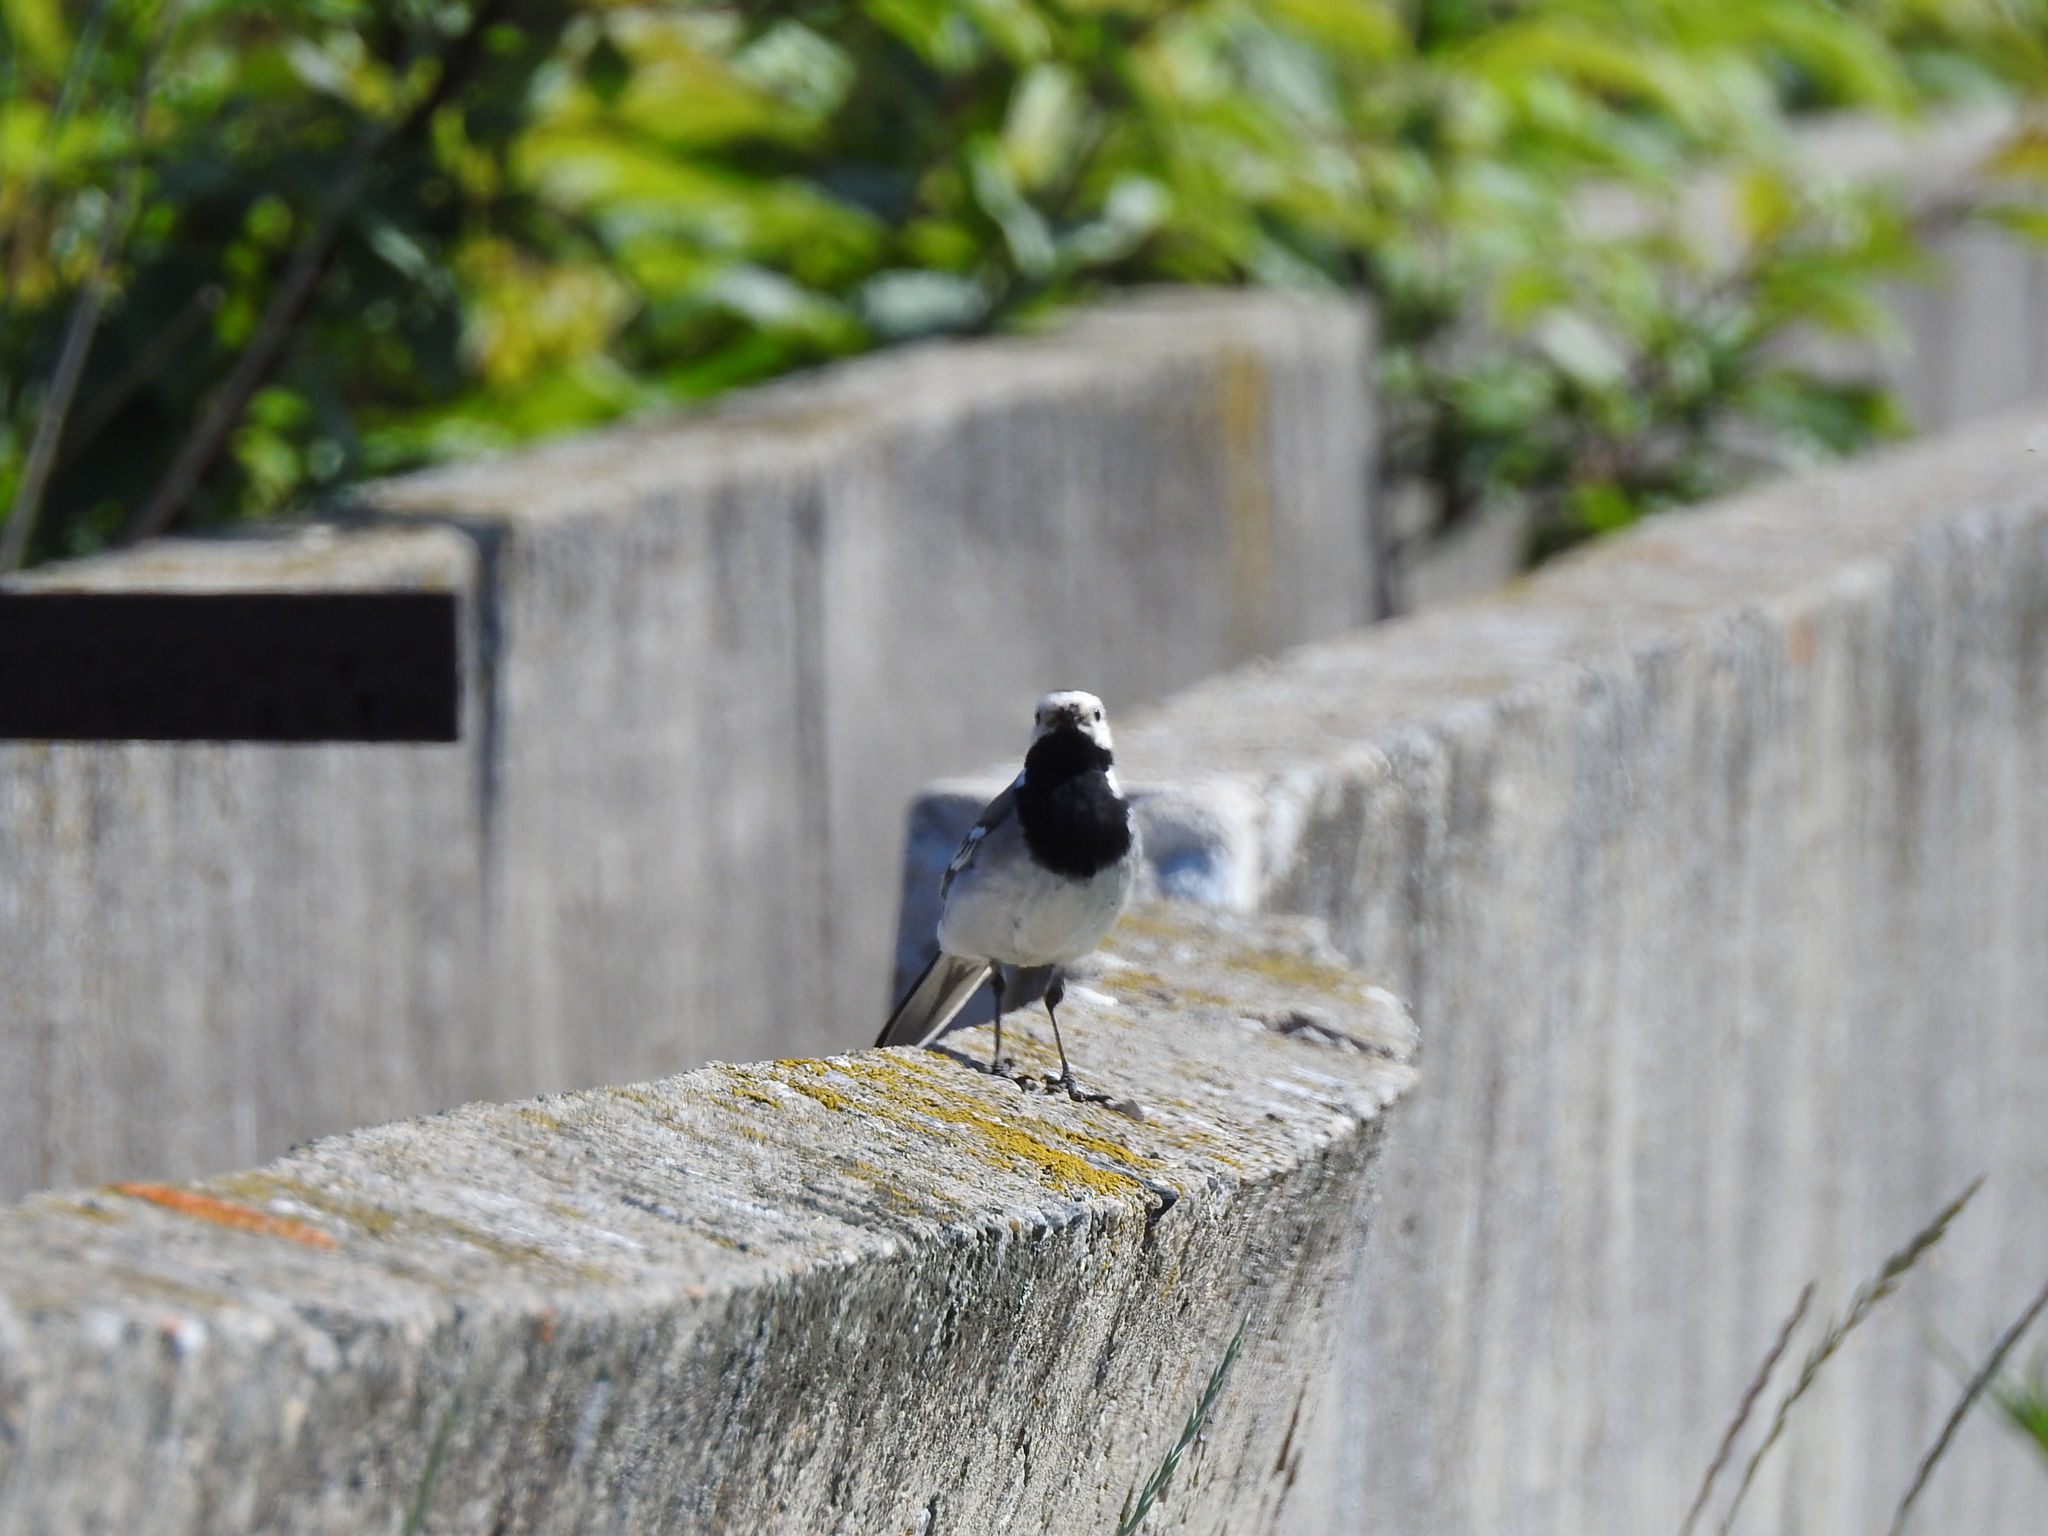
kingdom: Animalia
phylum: Chordata
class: Aves
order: Passeriformes
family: Motacillidae
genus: Motacilla
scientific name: Motacilla alba
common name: White wagtail
